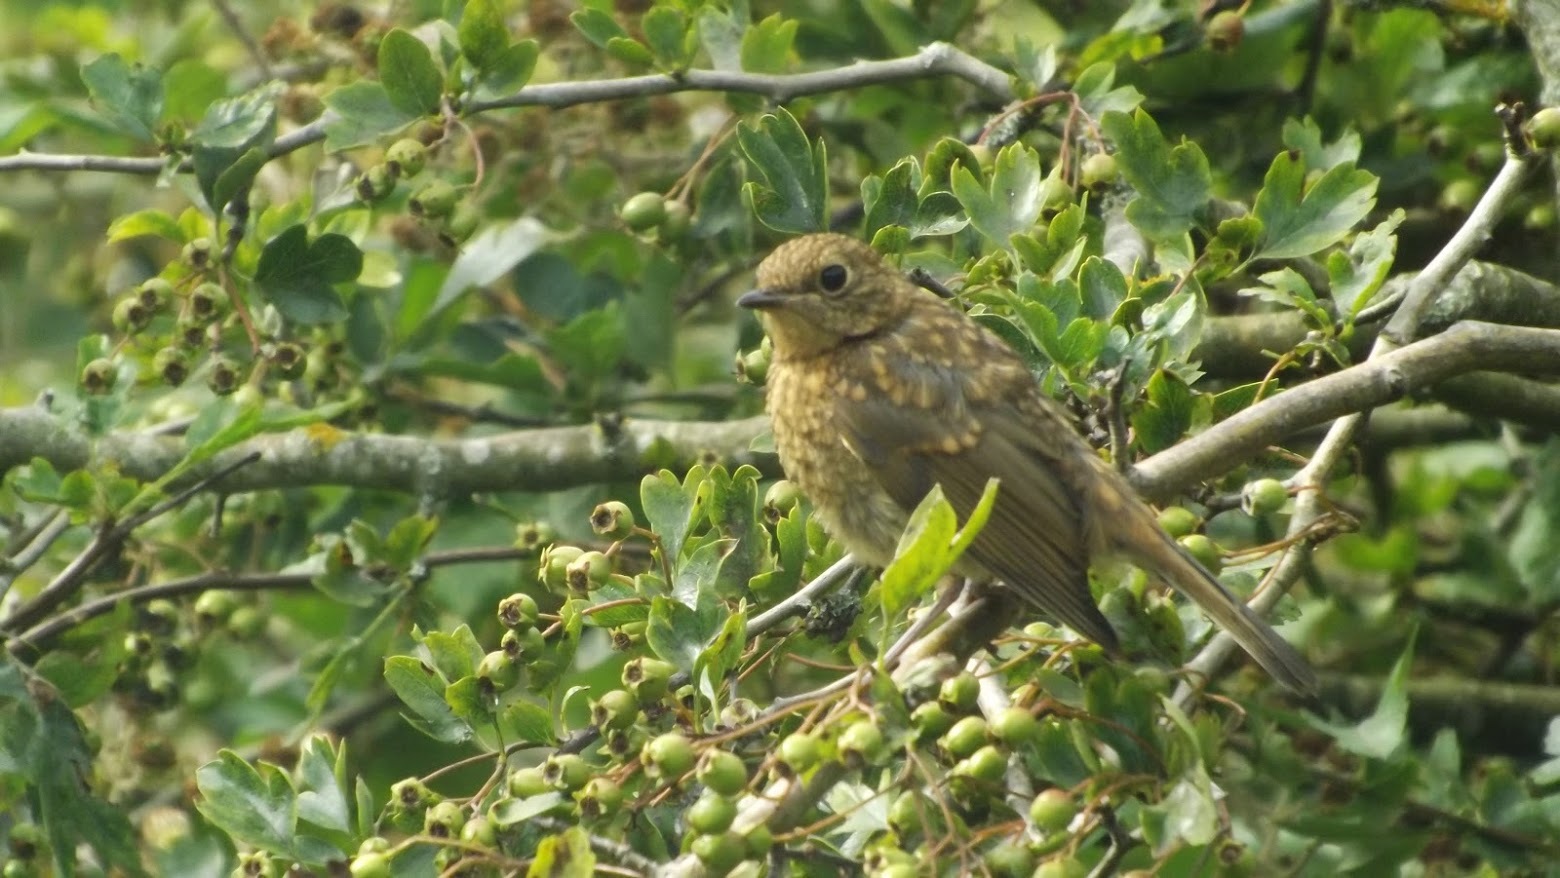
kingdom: Animalia
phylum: Chordata
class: Aves
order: Passeriformes
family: Muscicapidae
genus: Erithacus
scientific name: Erithacus rubecula
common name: European robin
